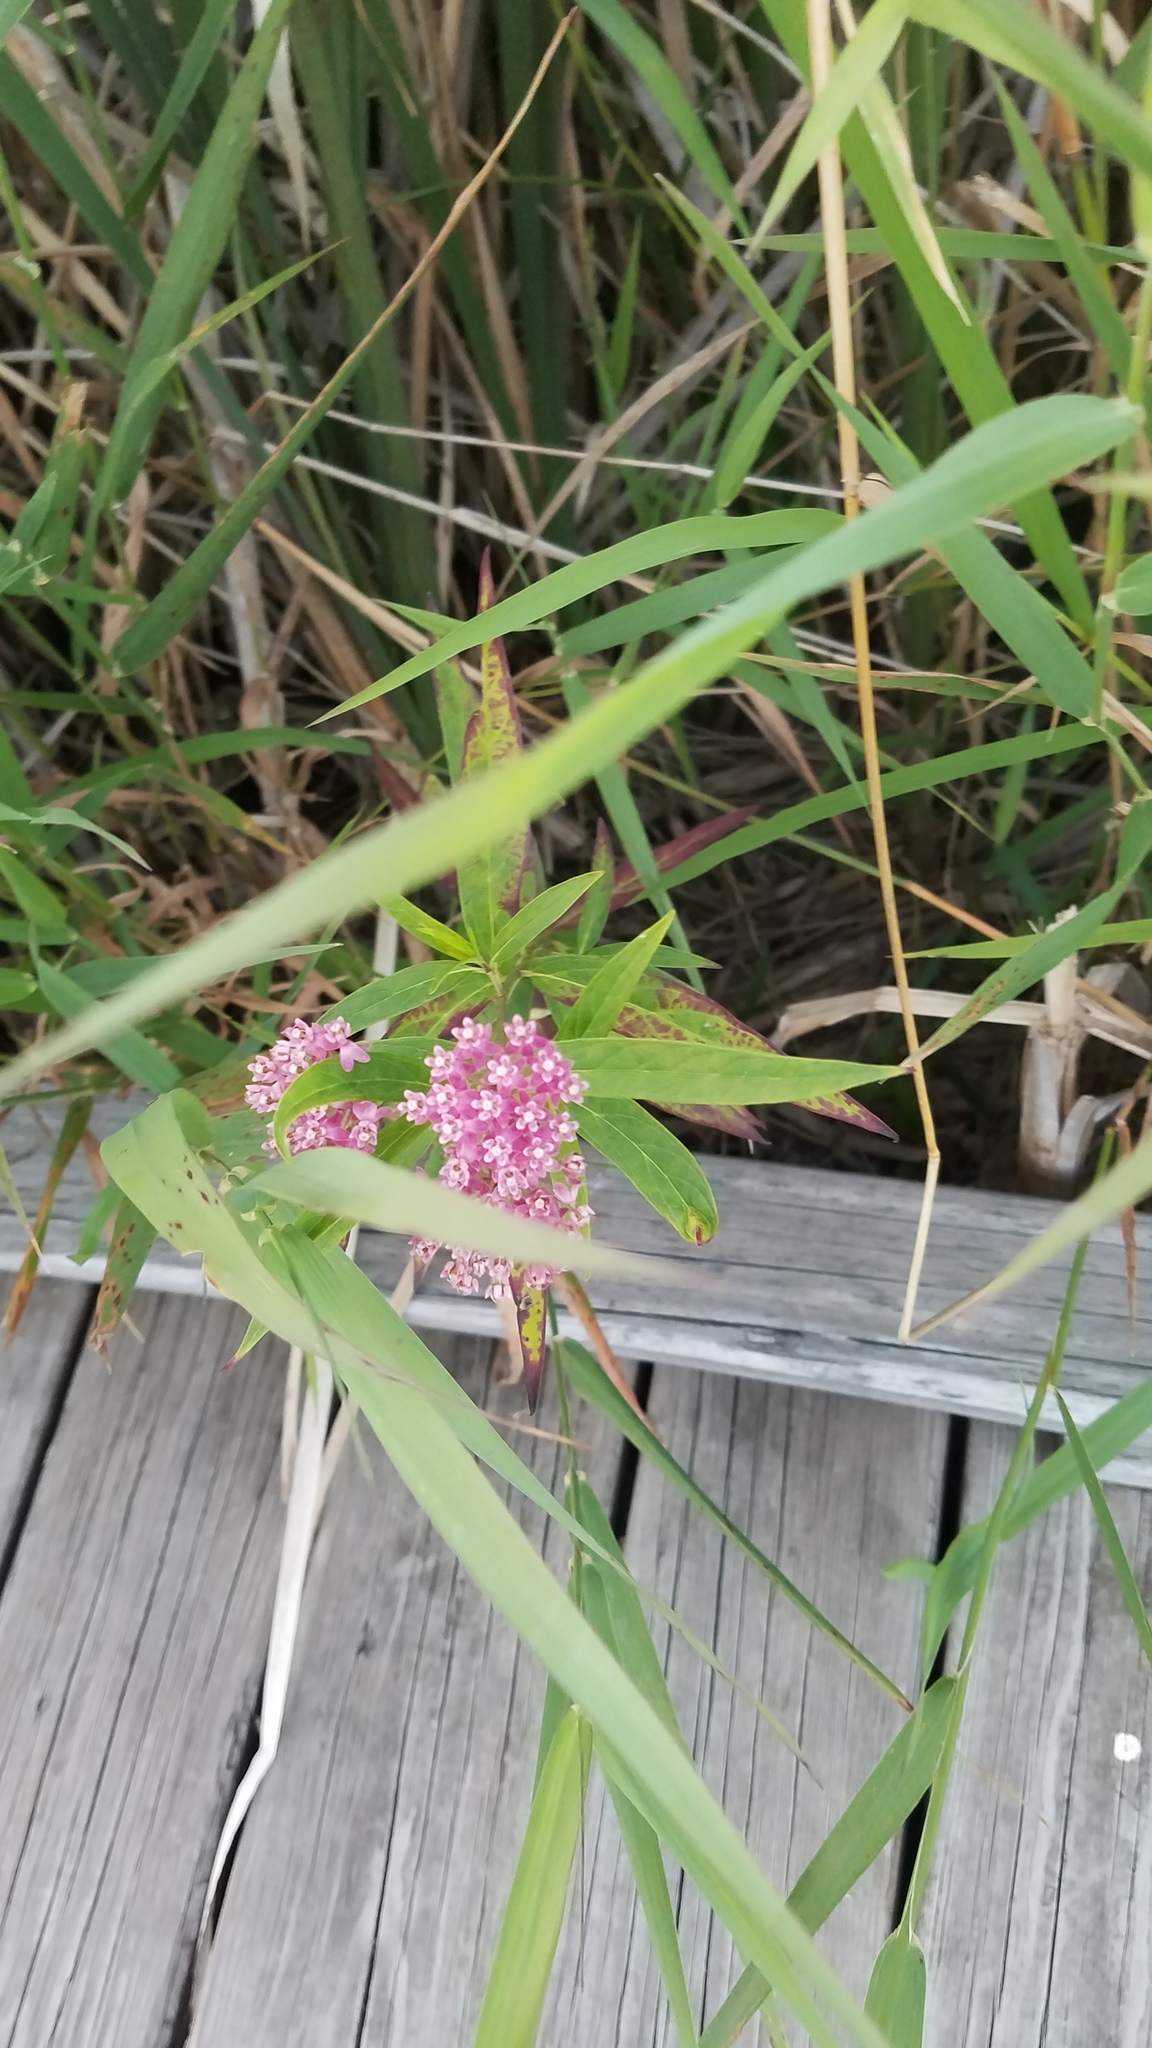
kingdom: Plantae
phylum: Tracheophyta
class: Magnoliopsida
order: Gentianales
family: Apocynaceae
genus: Asclepias
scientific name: Asclepias incarnata
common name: Swamp milkweed
